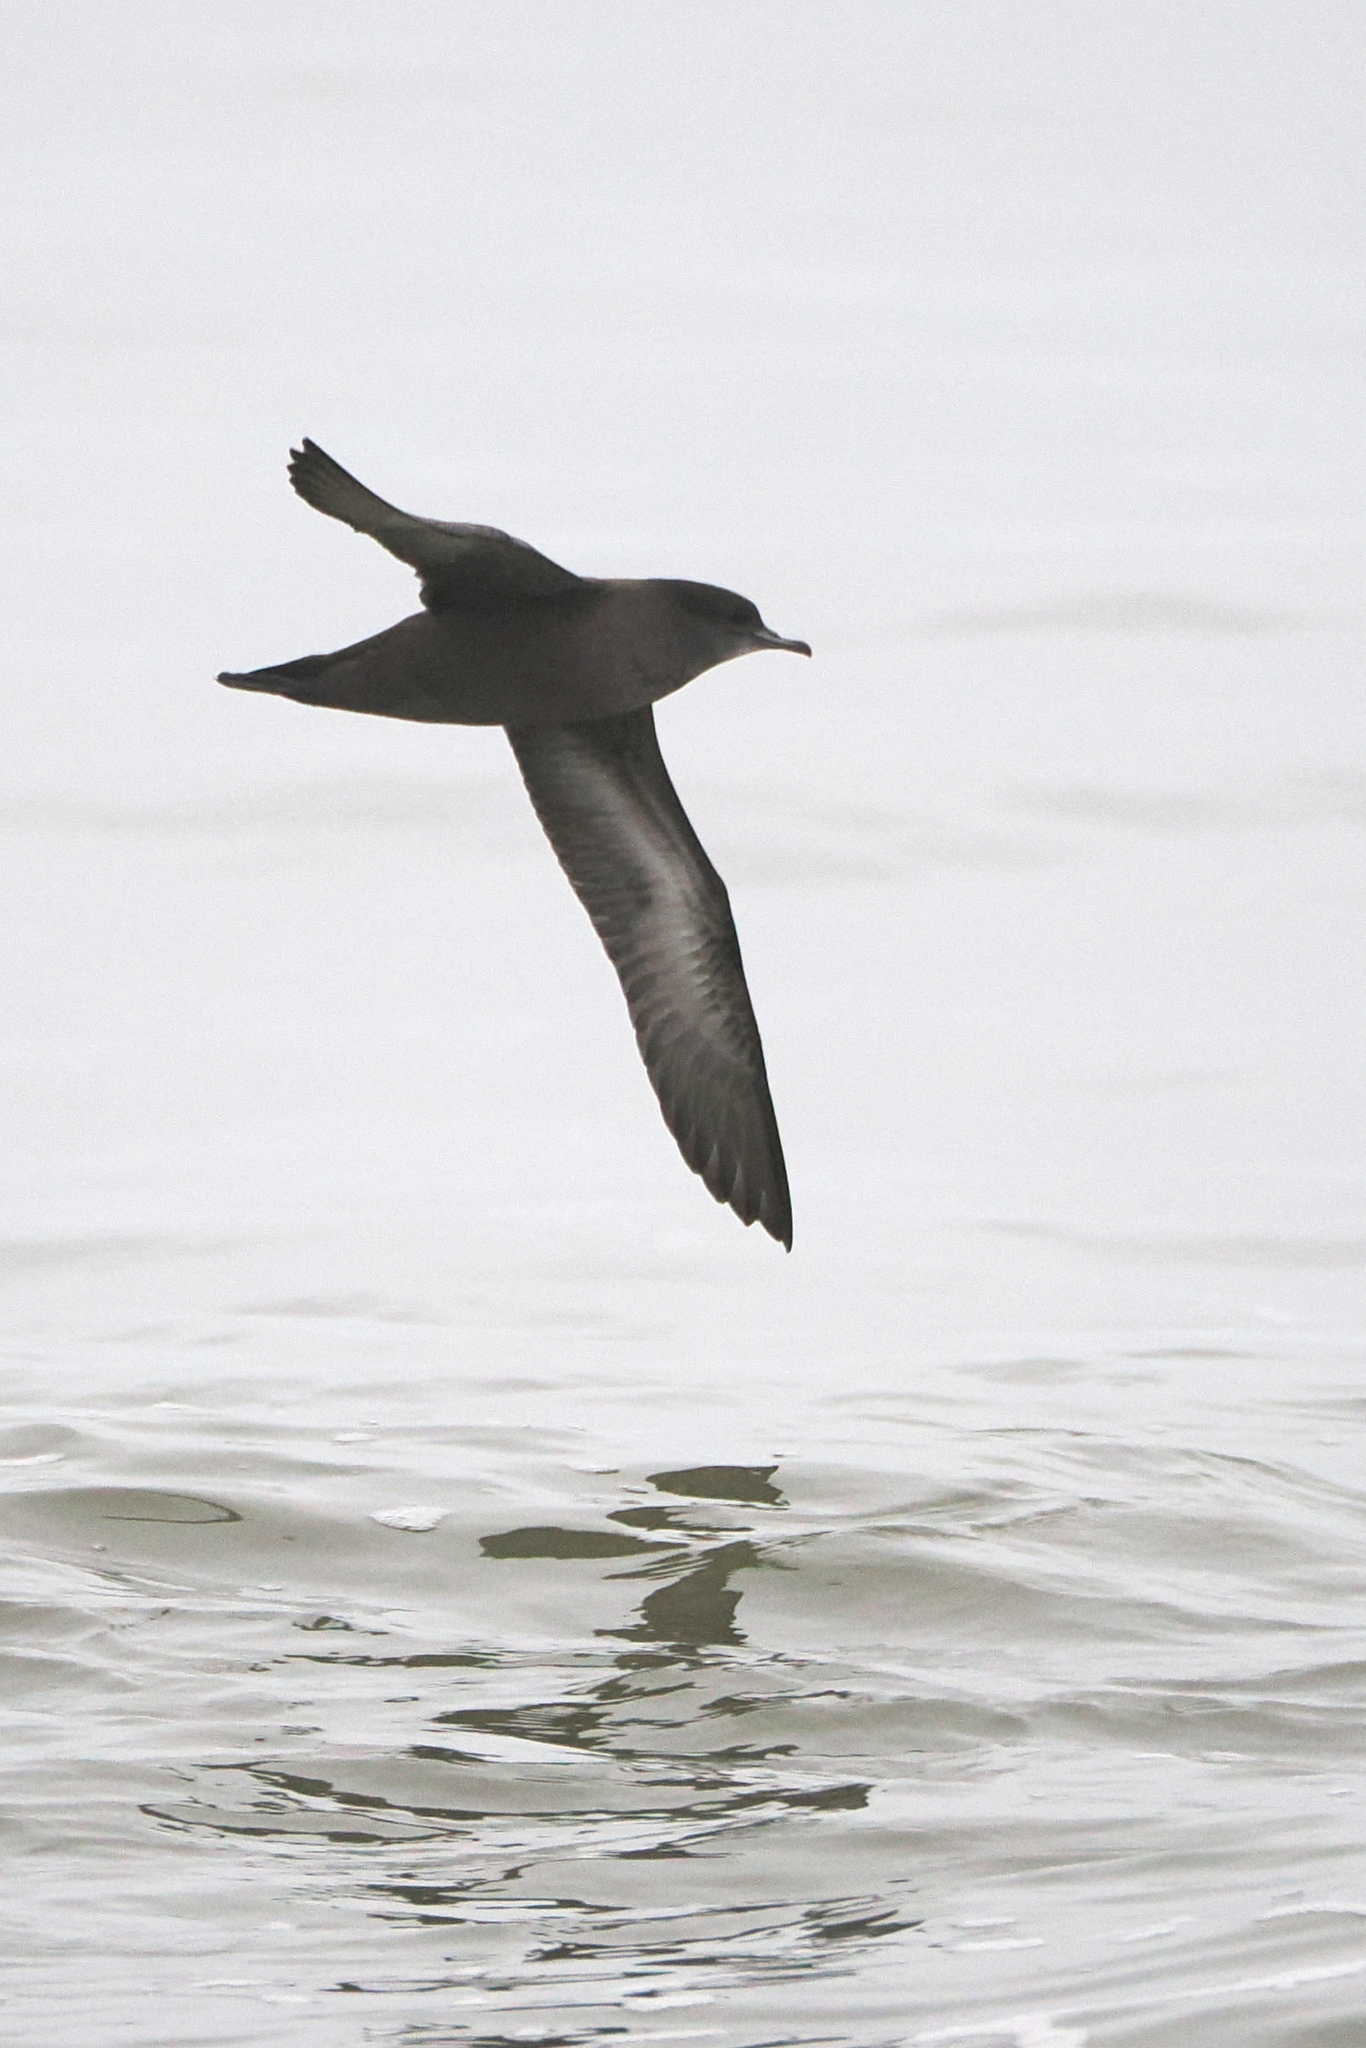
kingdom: Animalia
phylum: Chordata
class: Aves
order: Procellariiformes
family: Procellariidae
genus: Puffinus
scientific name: Puffinus tenuirostris
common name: Short-tailed shearwater
